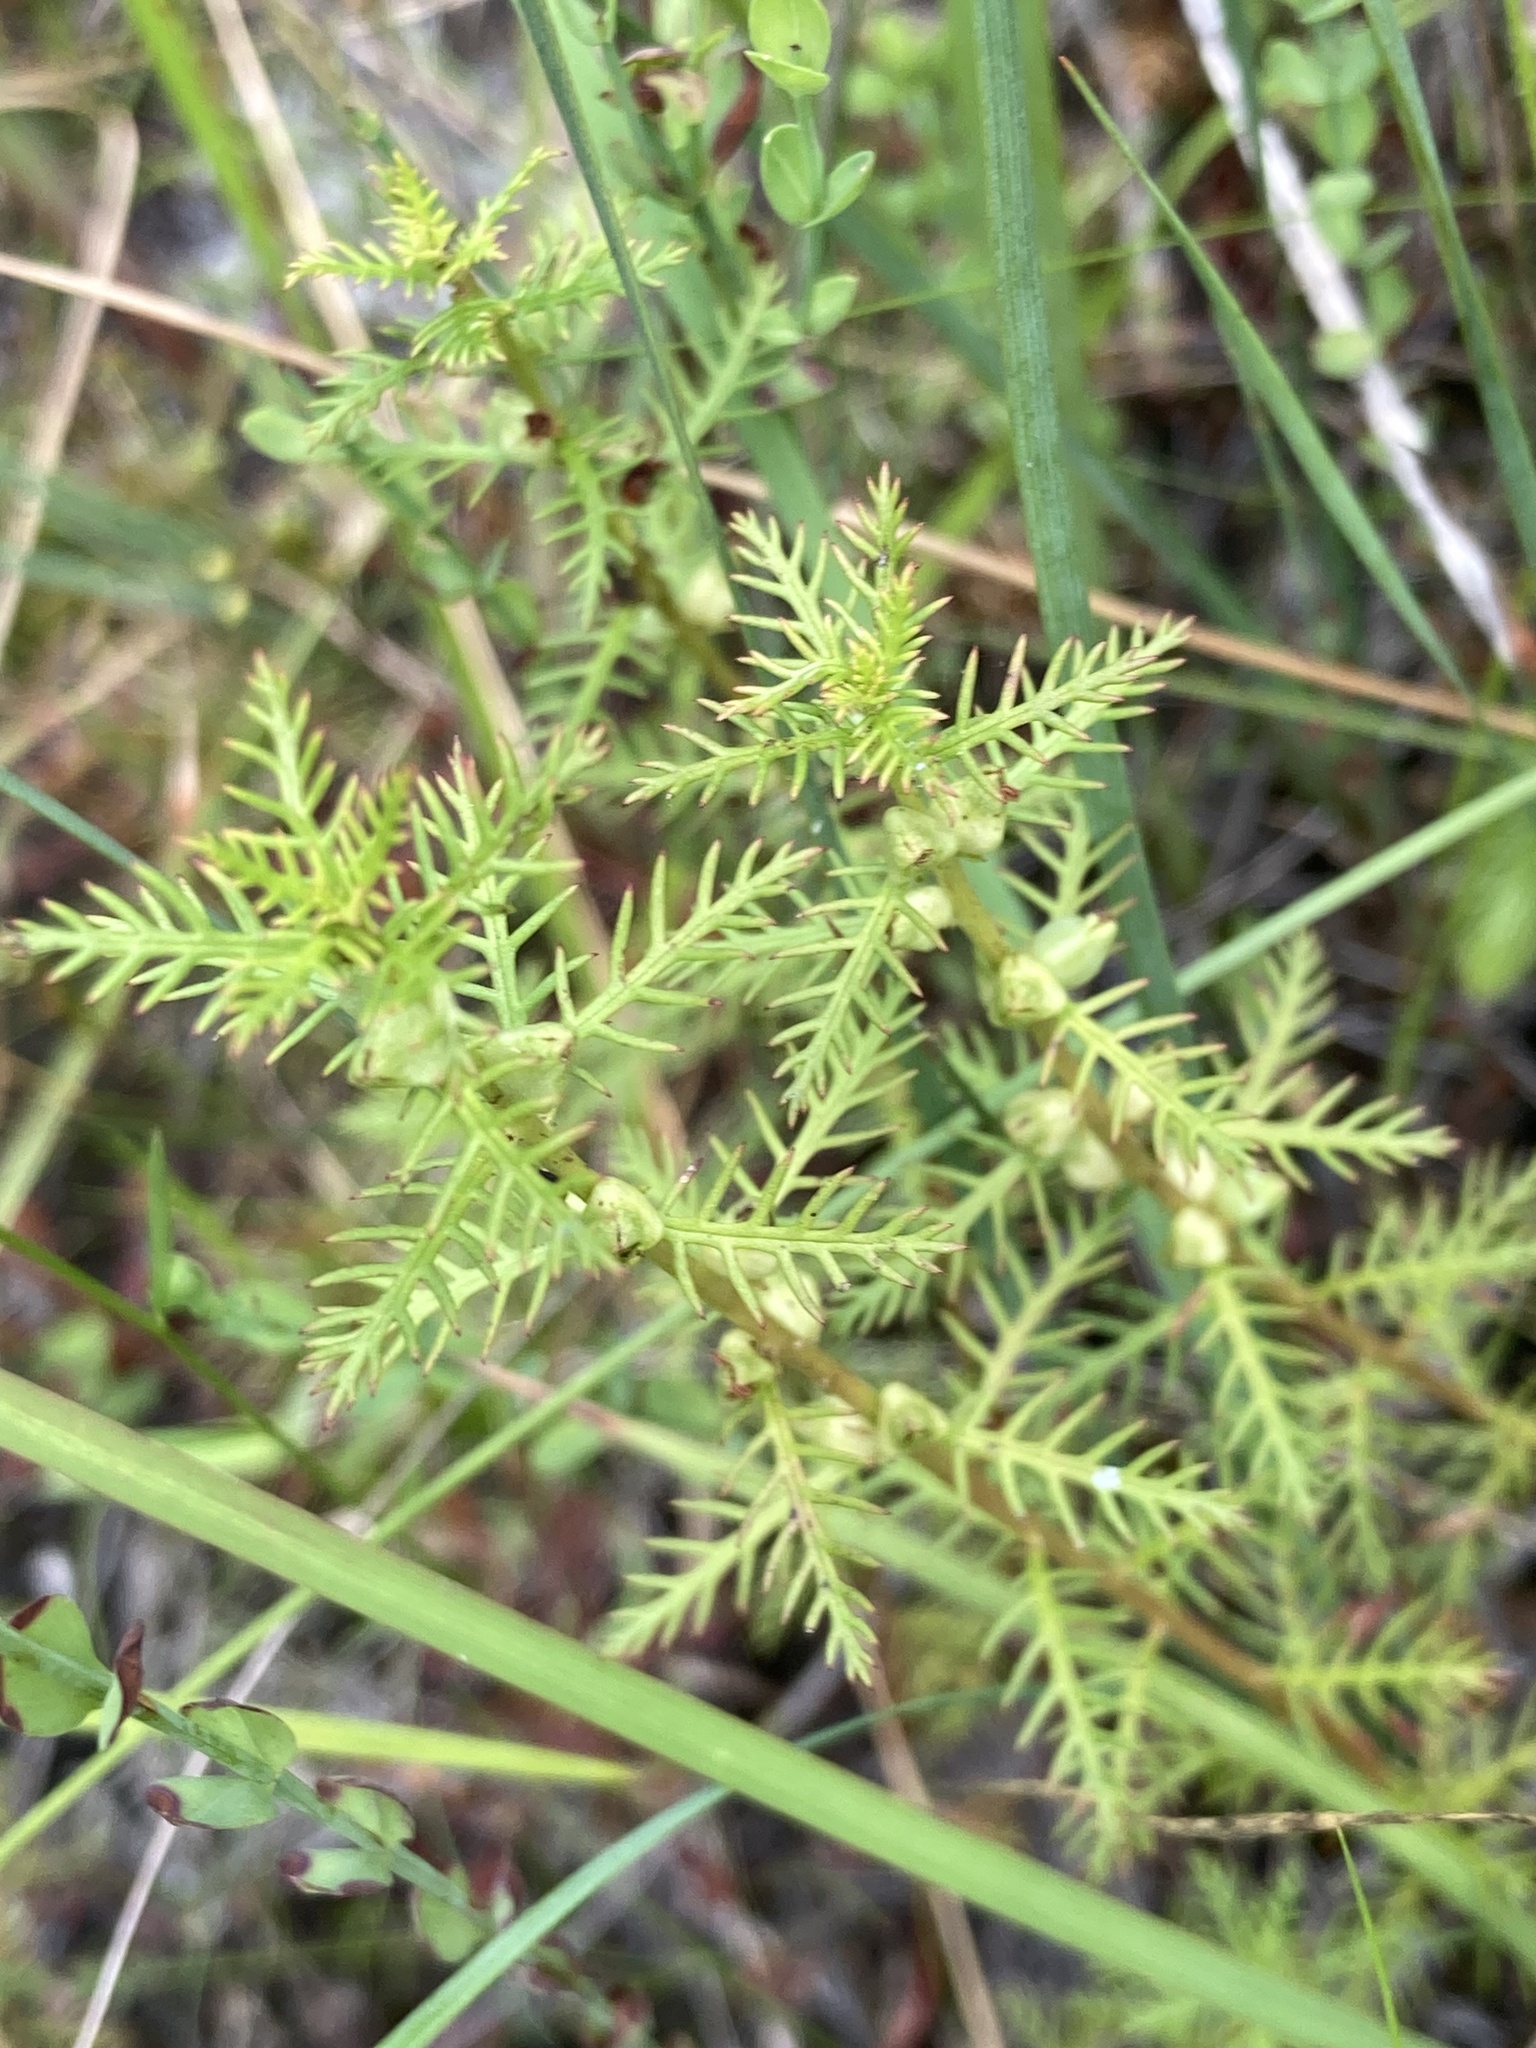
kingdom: Plantae
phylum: Tracheophyta
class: Magnoliopsida
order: Saxifragales
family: Haloragaceae
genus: Proserpinaca
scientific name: Proserpinaca pectinata
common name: Comb-leaved mermaidweed
